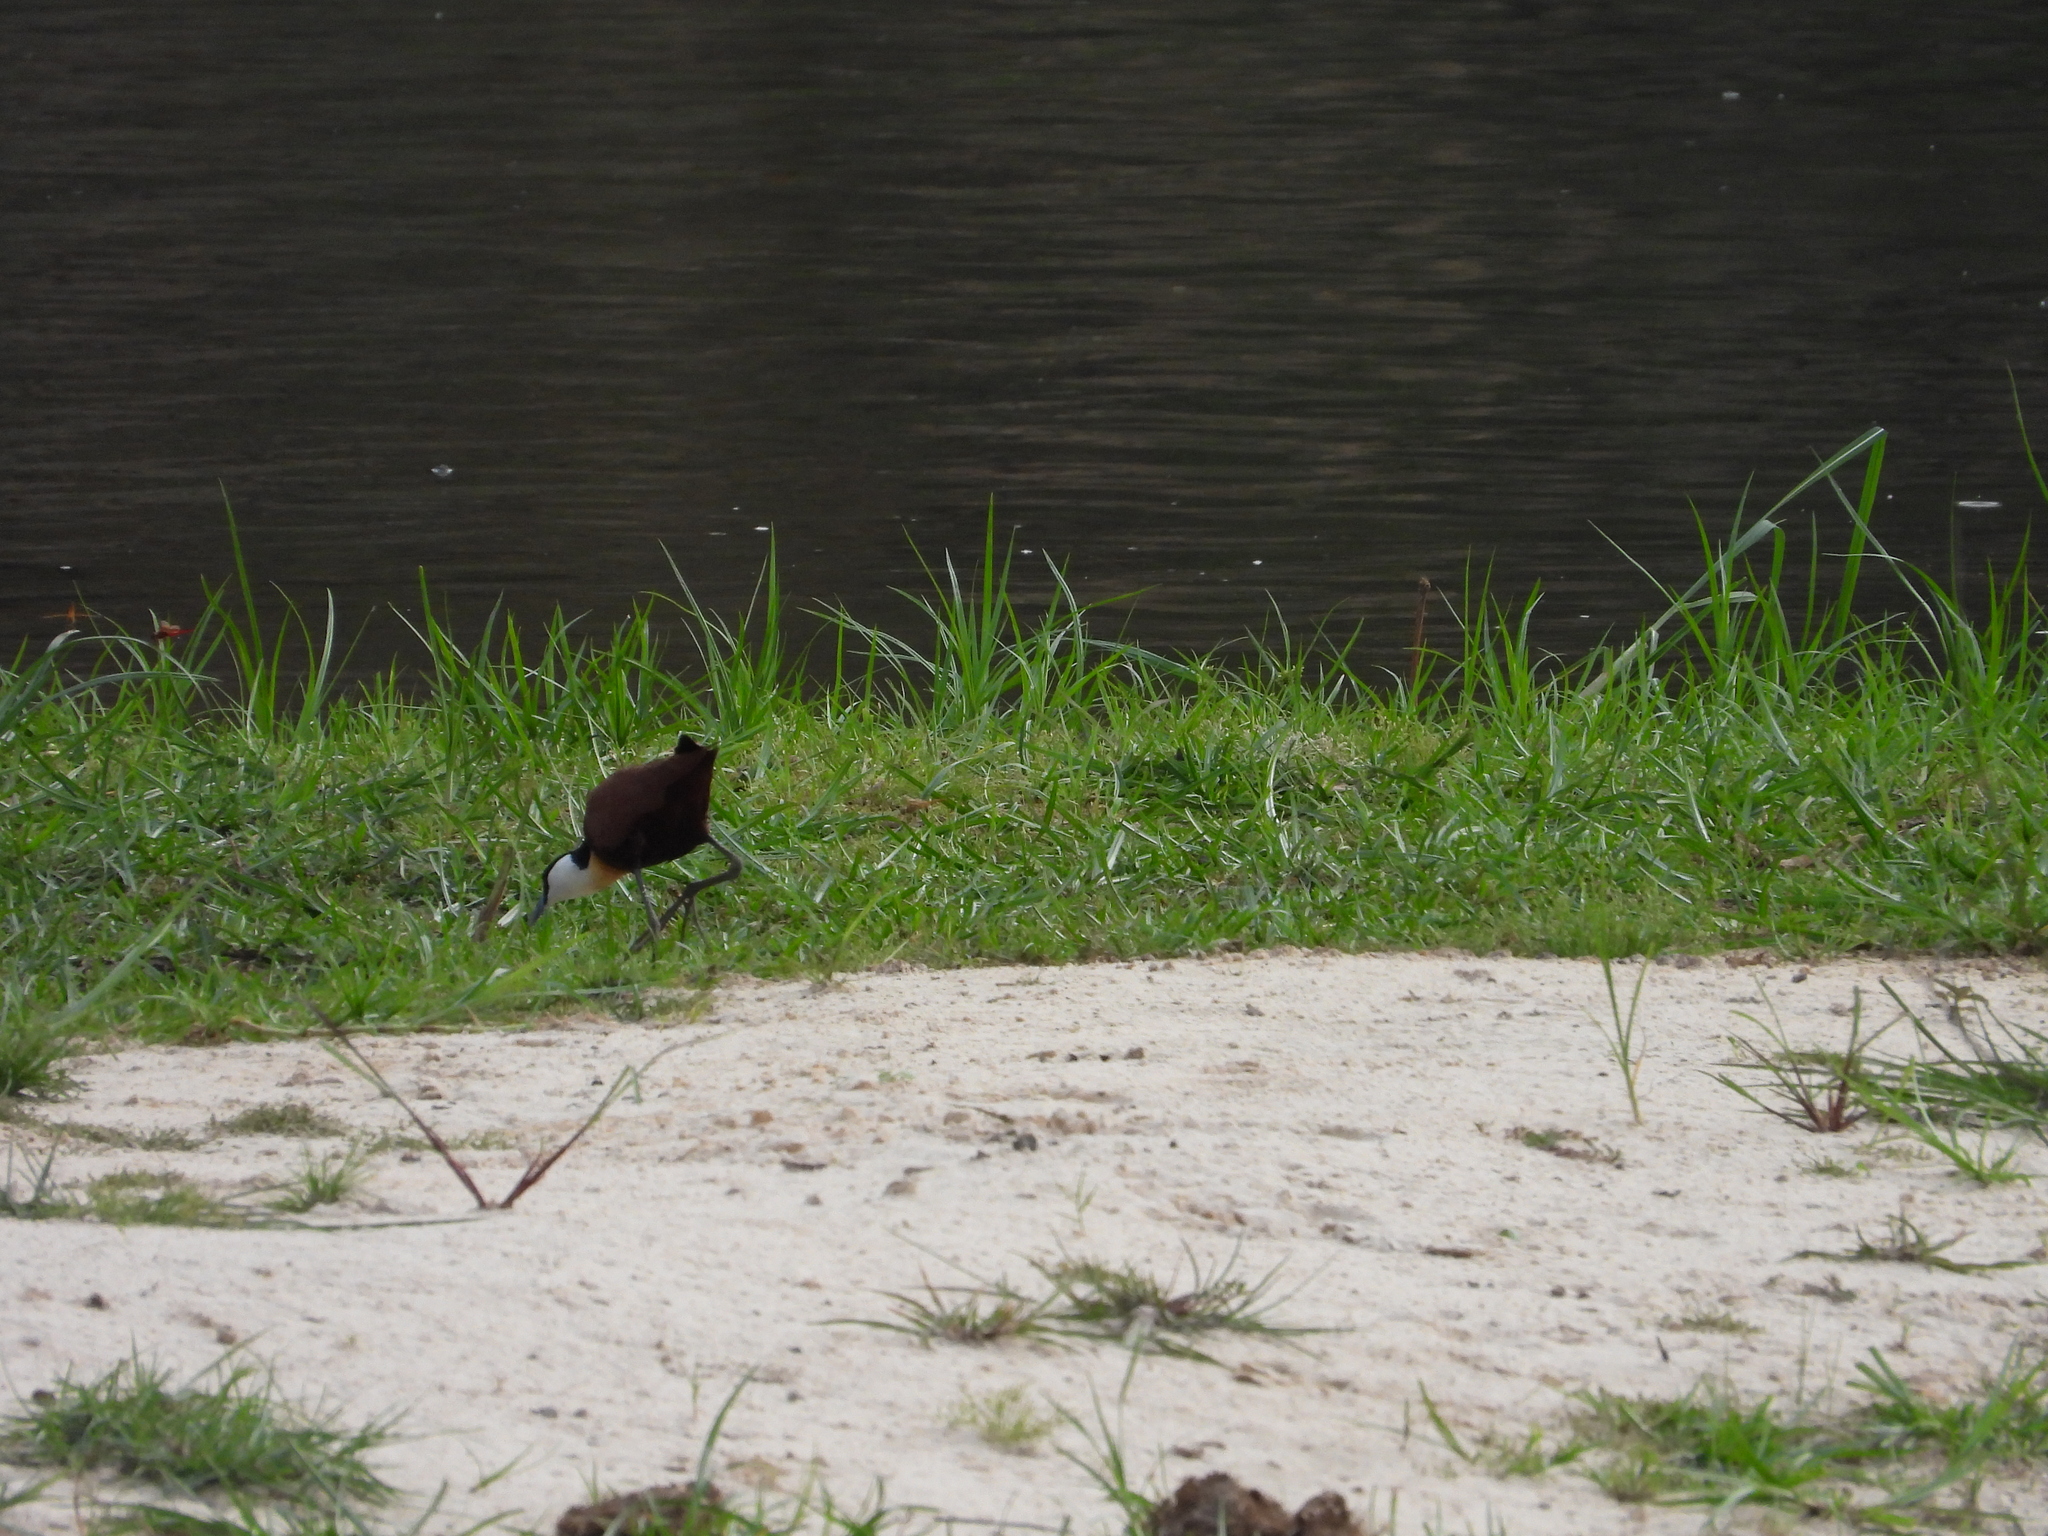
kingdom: Animalia
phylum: Chordata
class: Aves
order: Charadriiformes
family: Jacanidae
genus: Actophilornis
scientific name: Actophilornis africanus
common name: African jacana
